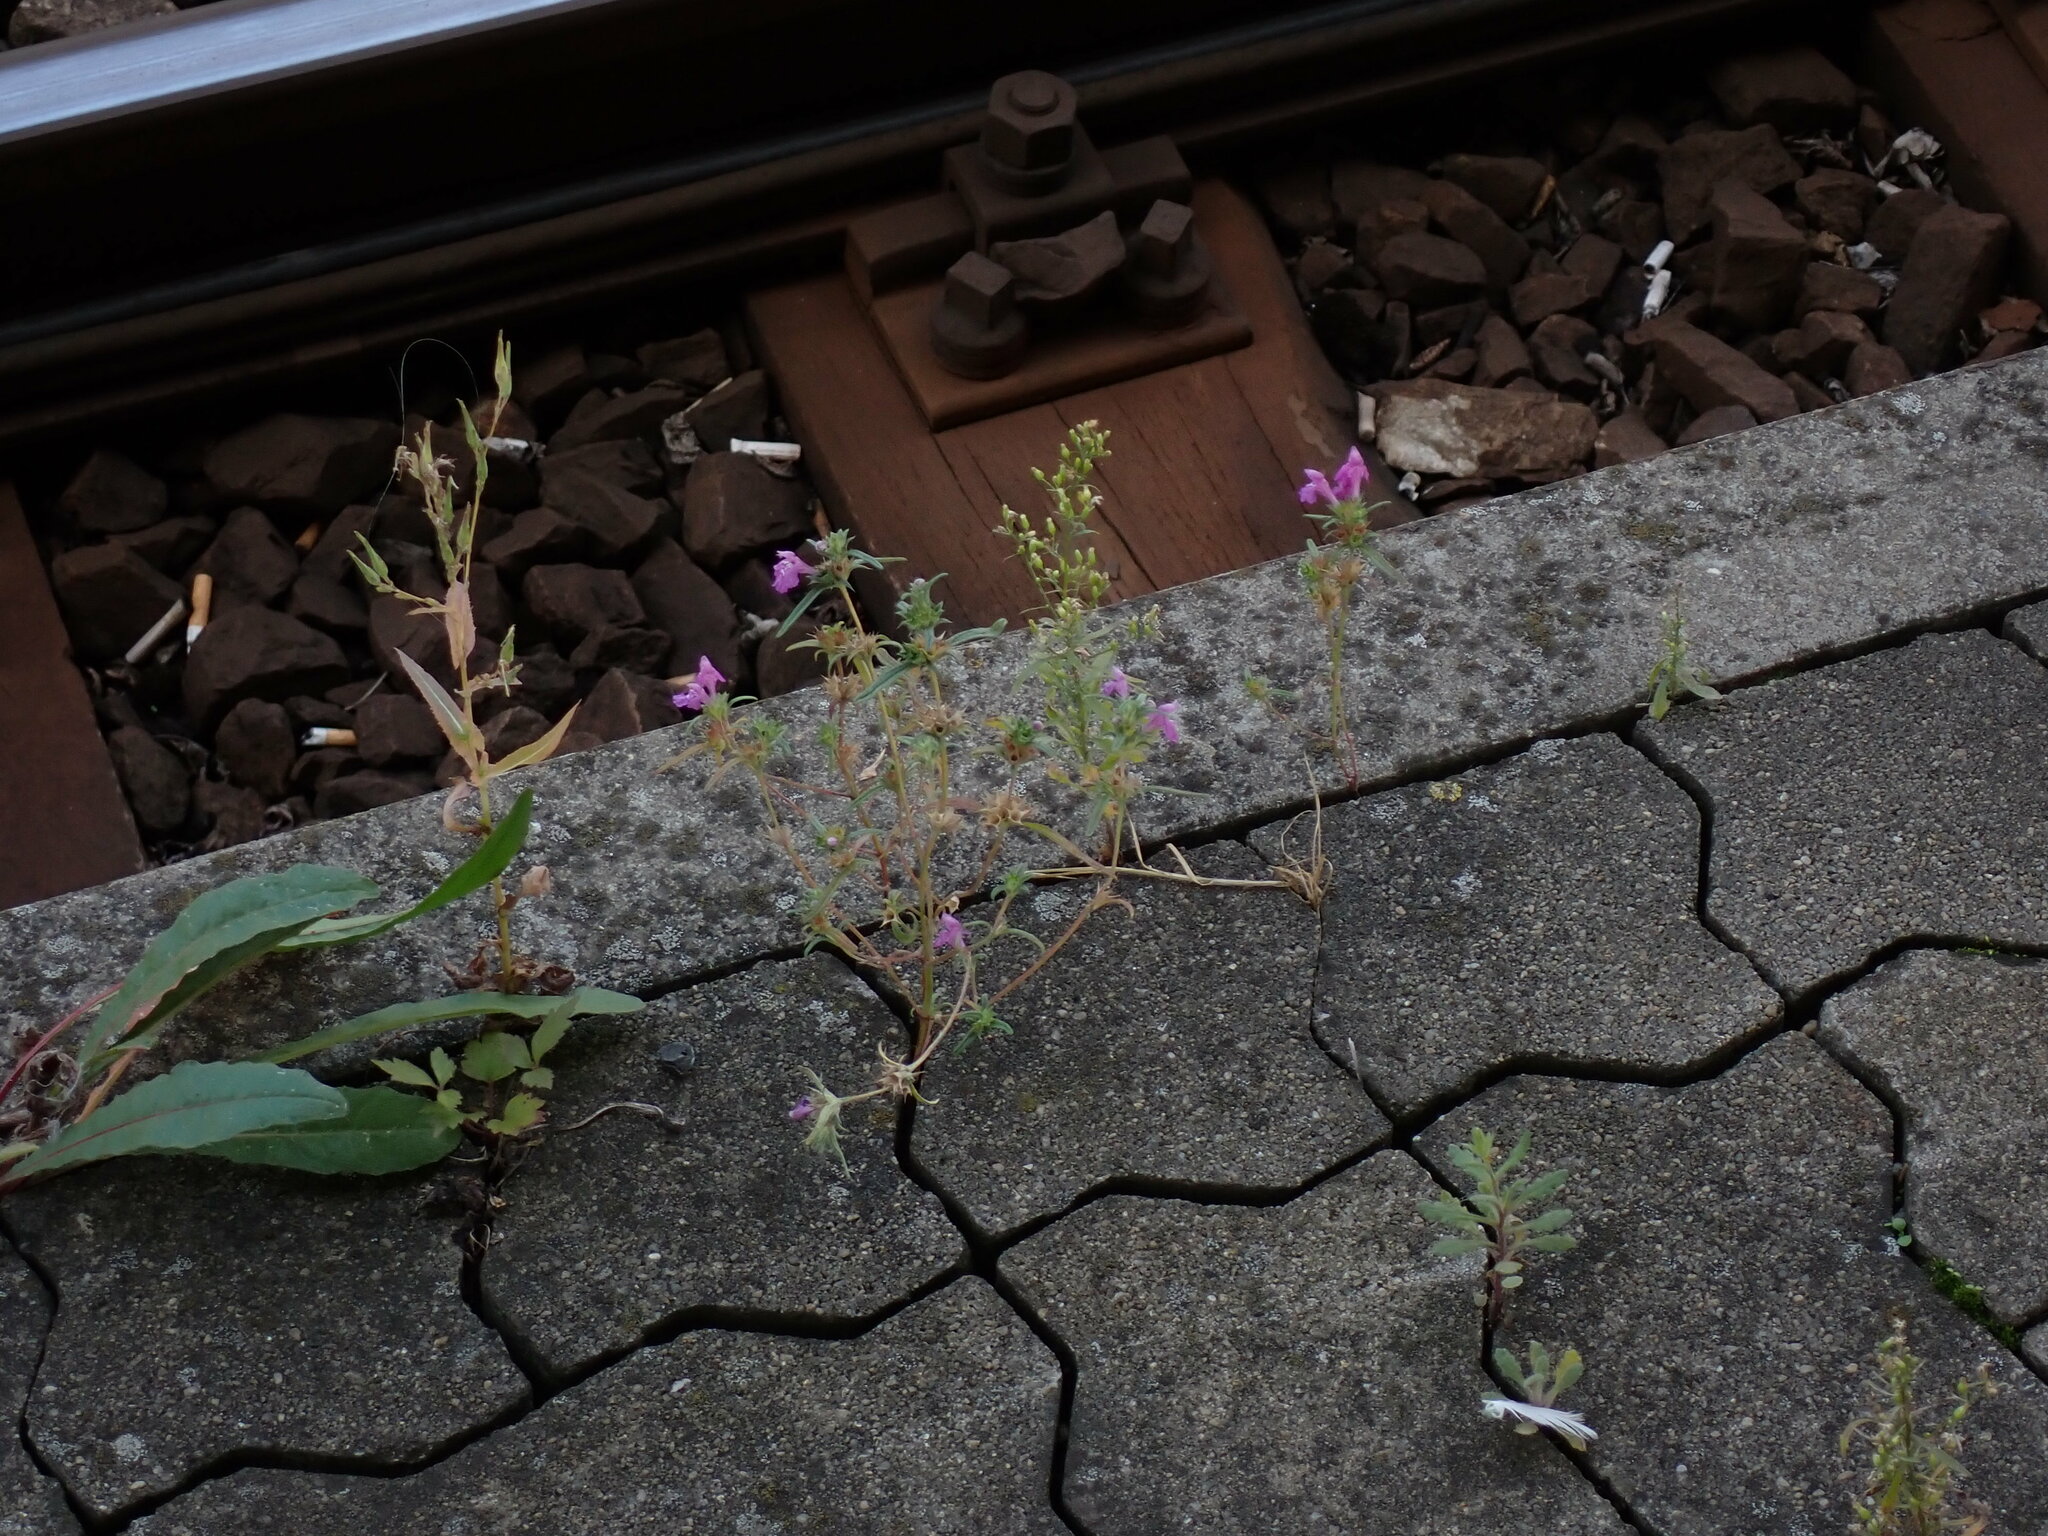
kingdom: Plantae
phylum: Tracheophyta
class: Magnoliopsida
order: Lamiales
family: Lamiaceae
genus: Galeopsis
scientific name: Galeopsis angustifolia
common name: Red hemp-nettle
